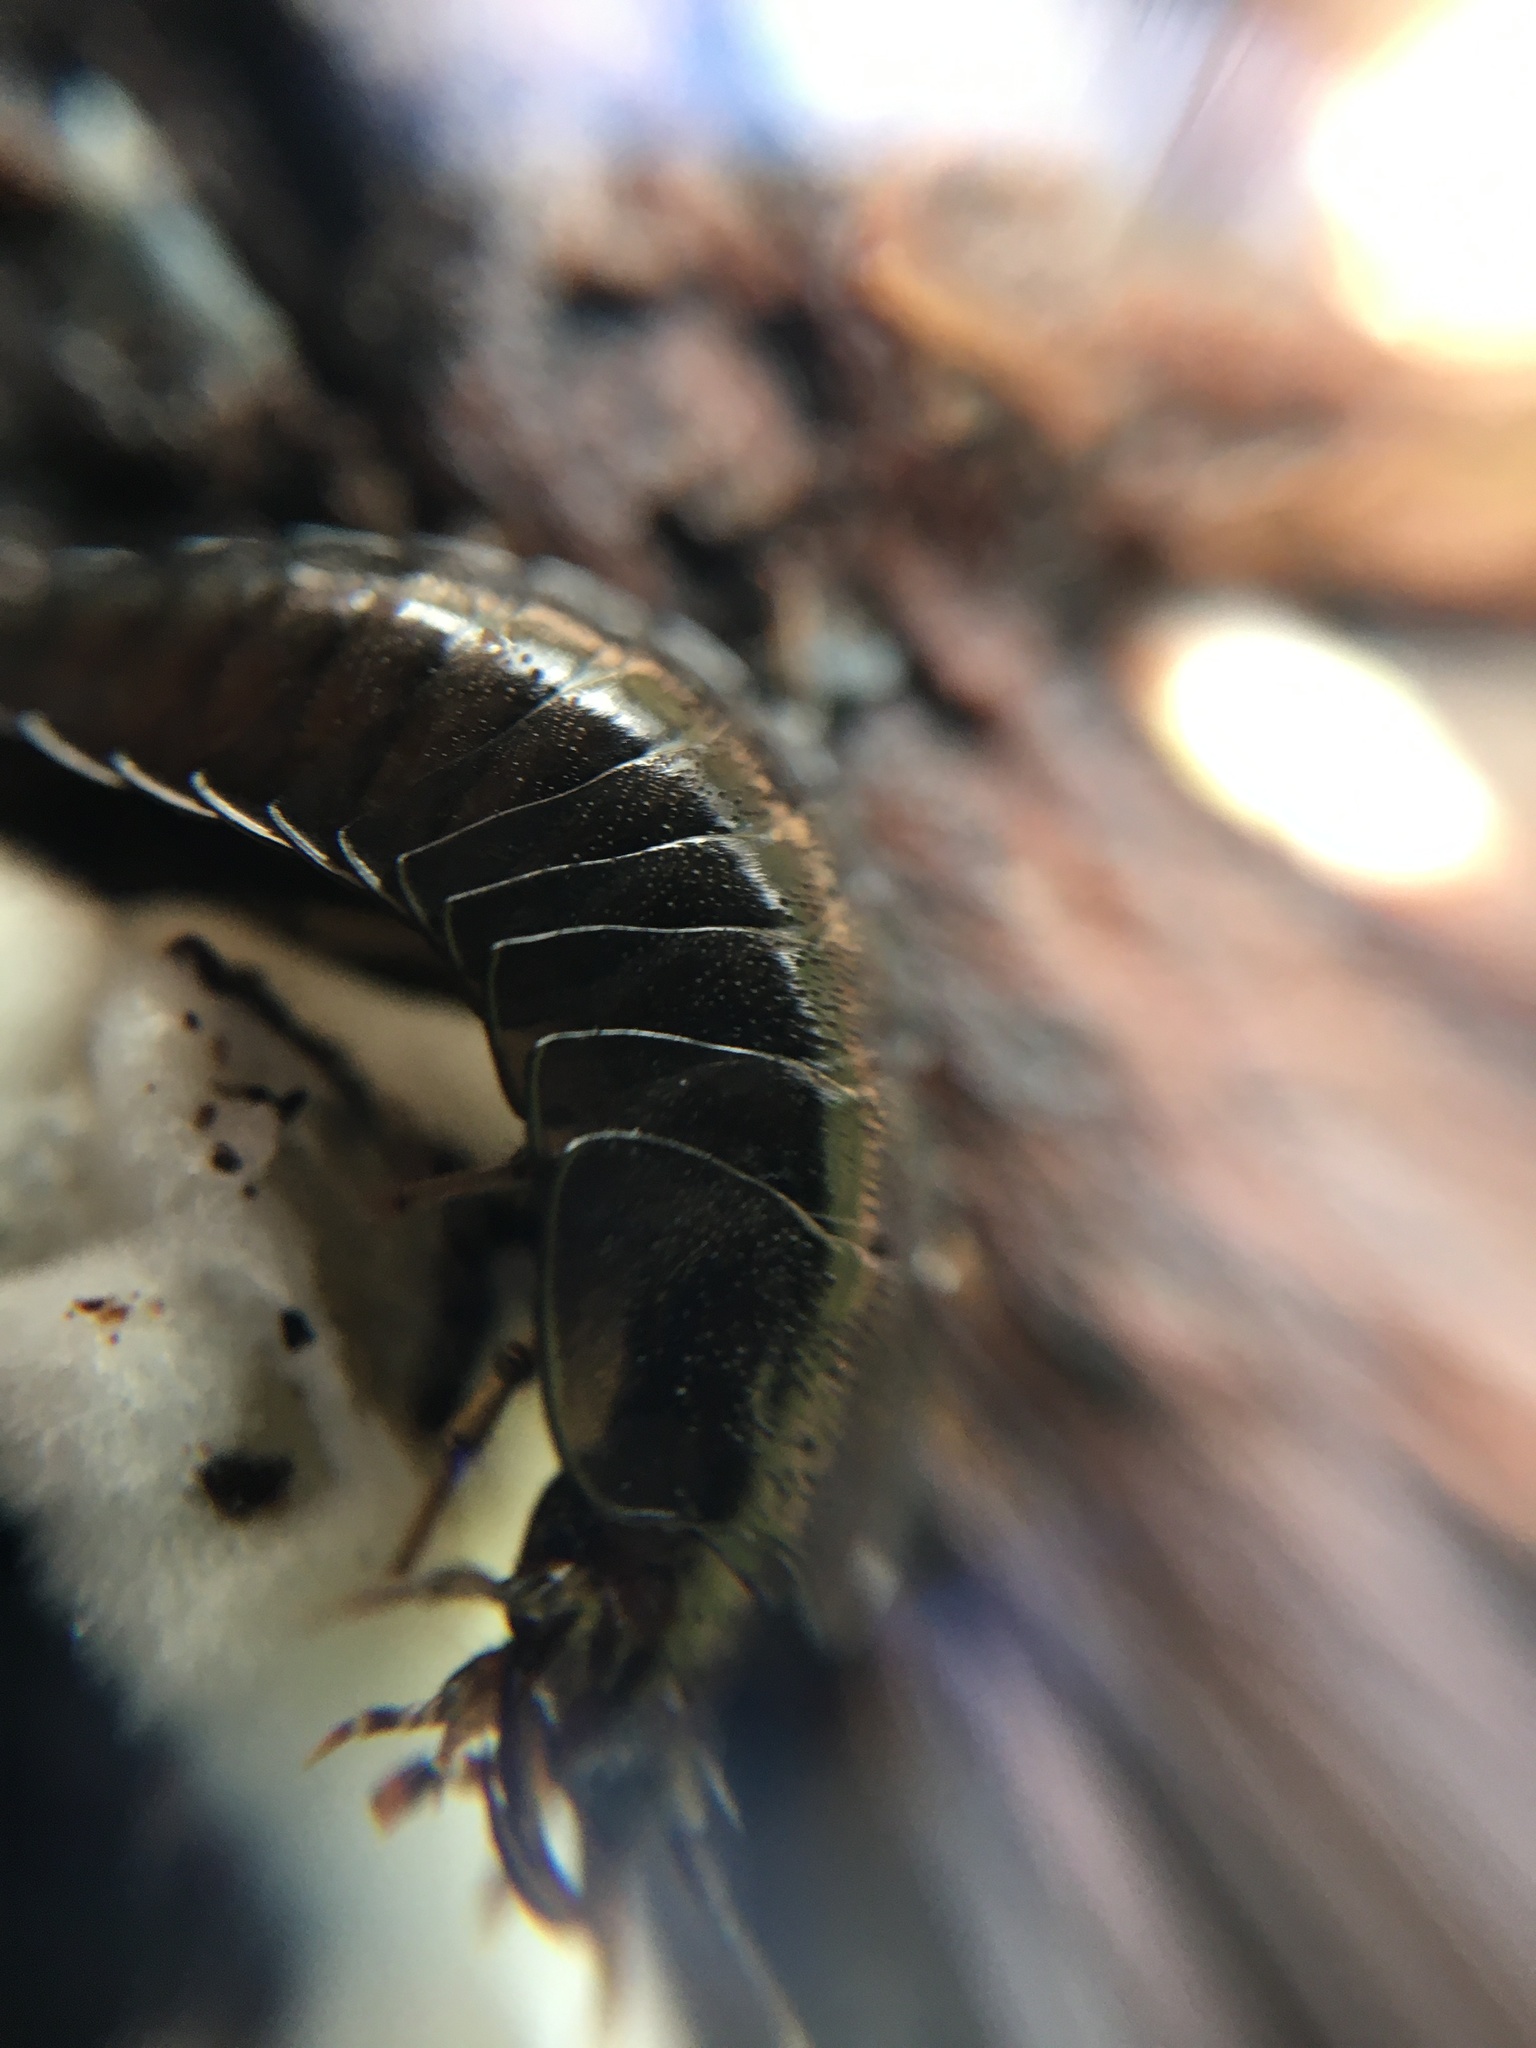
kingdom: Animalia
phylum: Arthropoda
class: Insecta
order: Coleoptera
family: Carabidae
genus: Scaphinotus
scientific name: Scaphinotus
